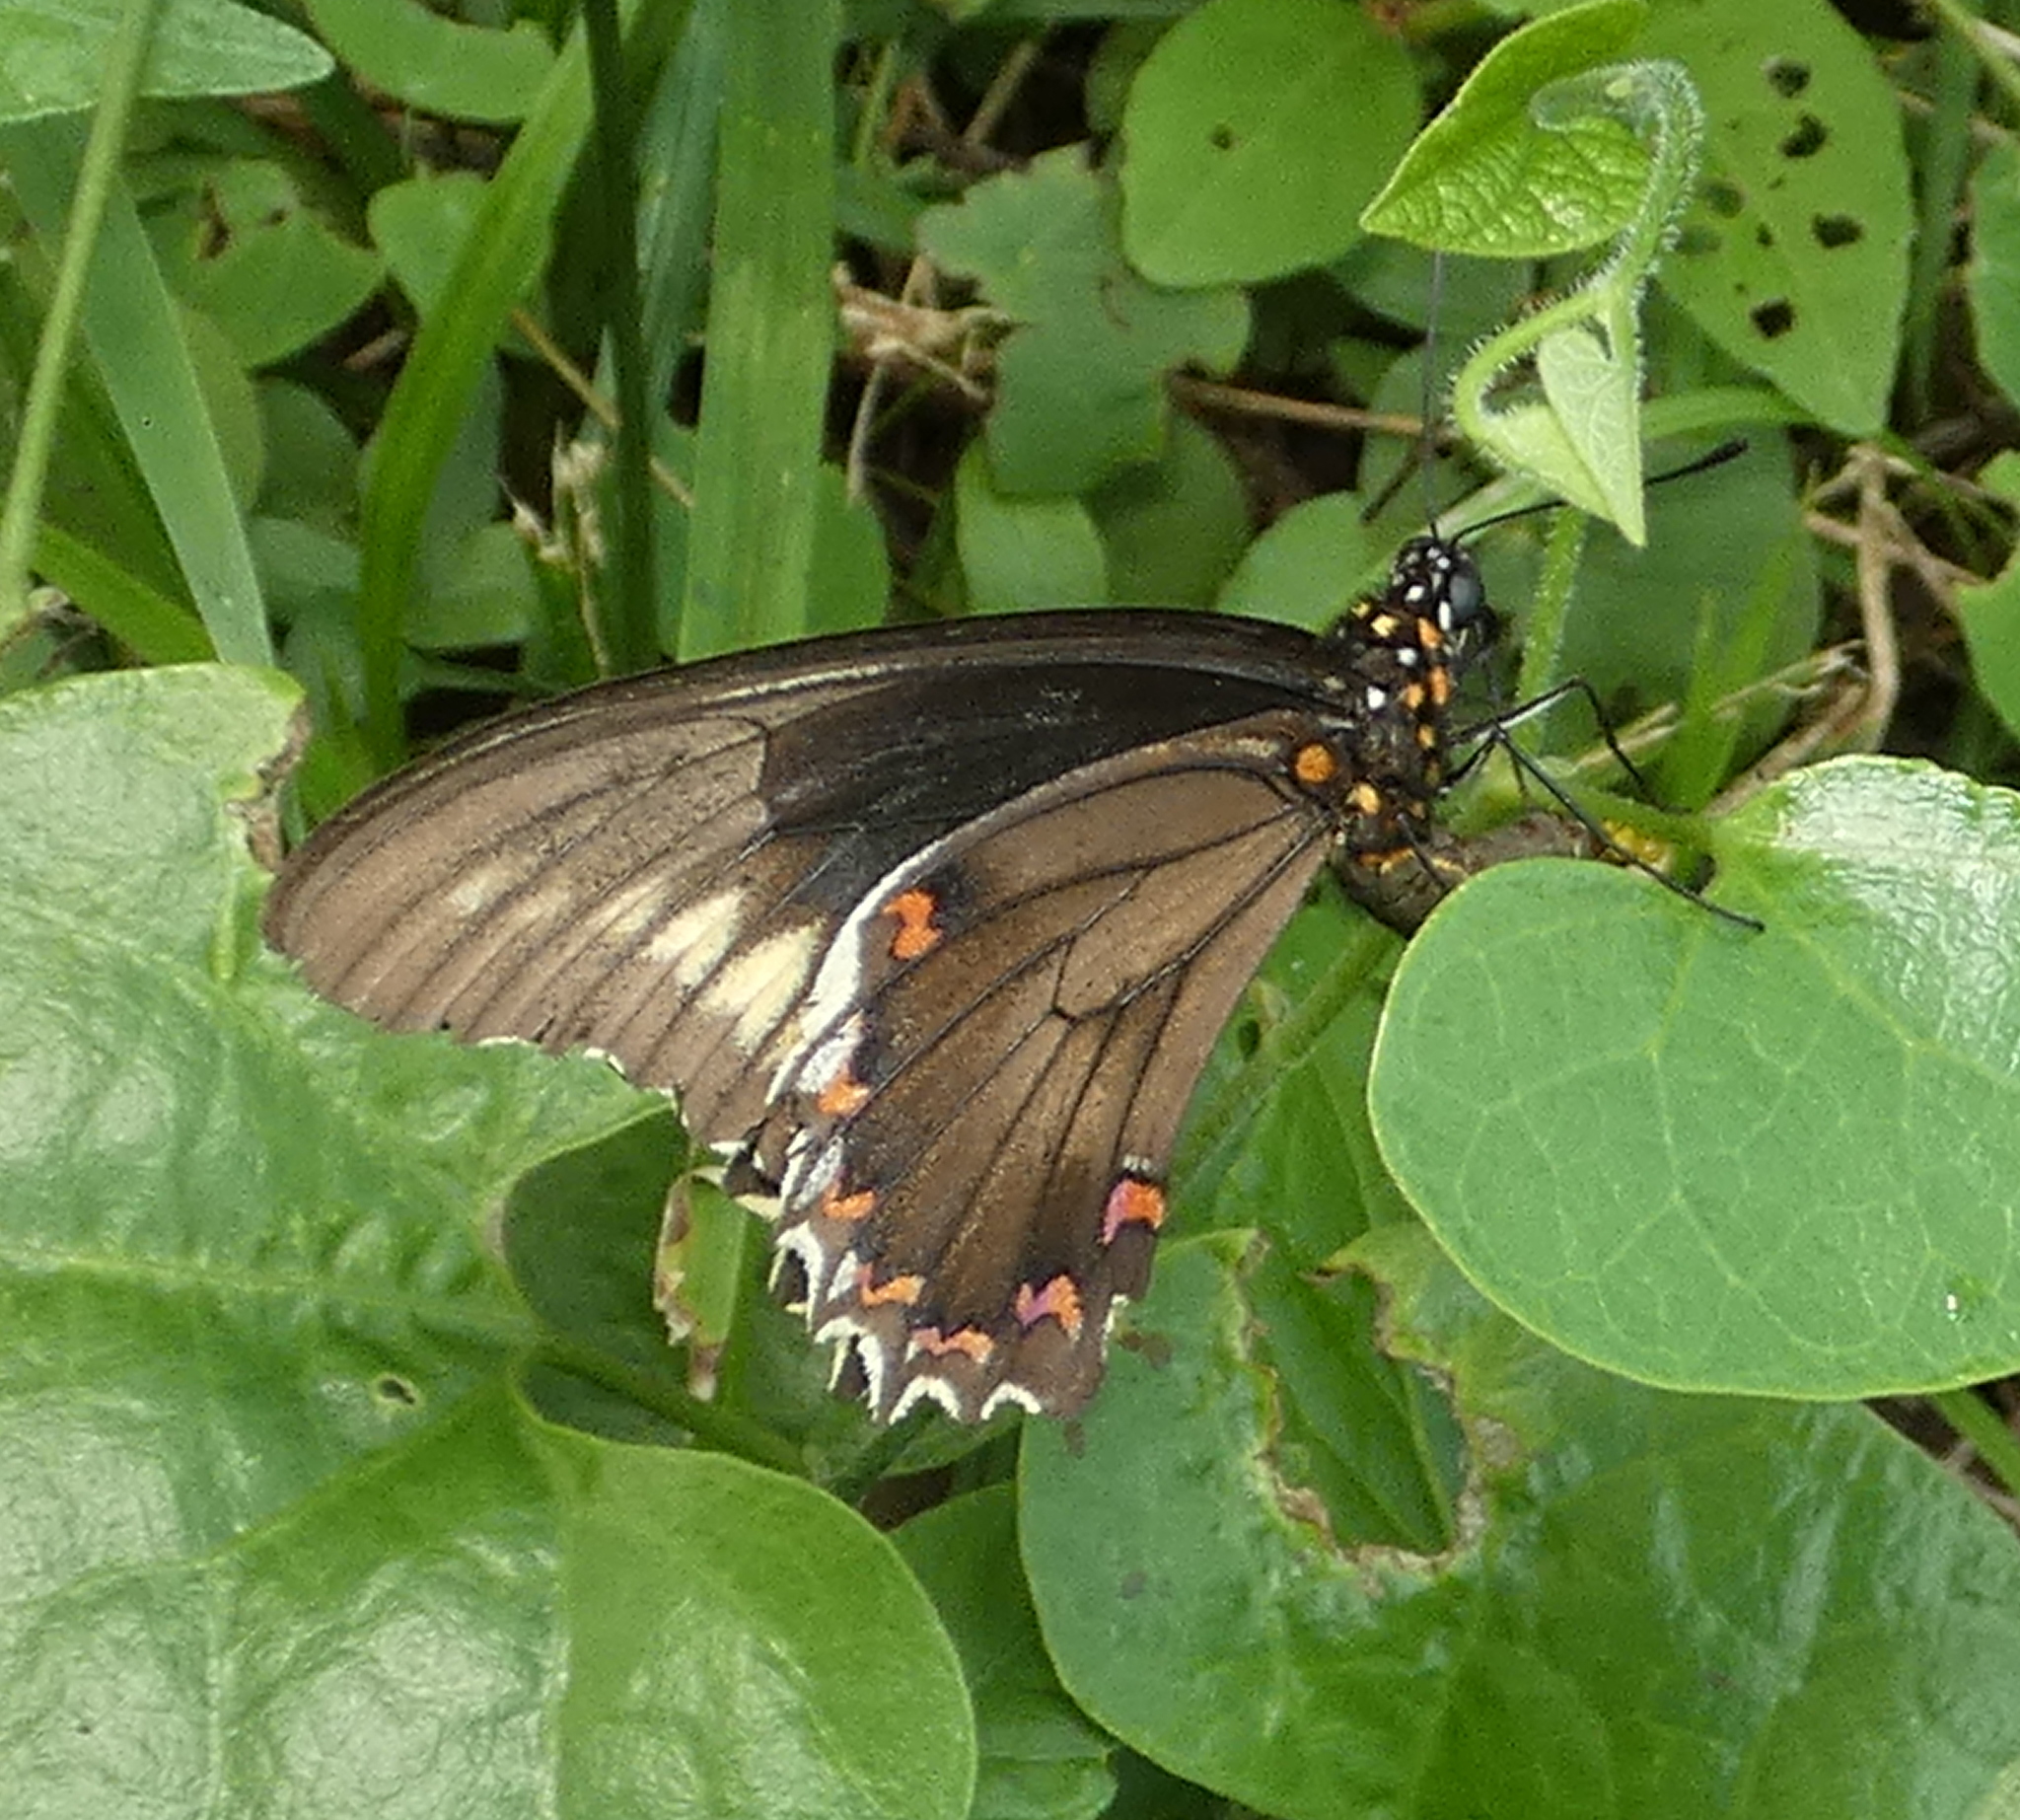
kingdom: Animalia
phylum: Arthropoda
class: Insecta
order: Lepidoptera
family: Papilionidae
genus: Battus
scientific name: Battus polydamas
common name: Polydamas swallowtail
